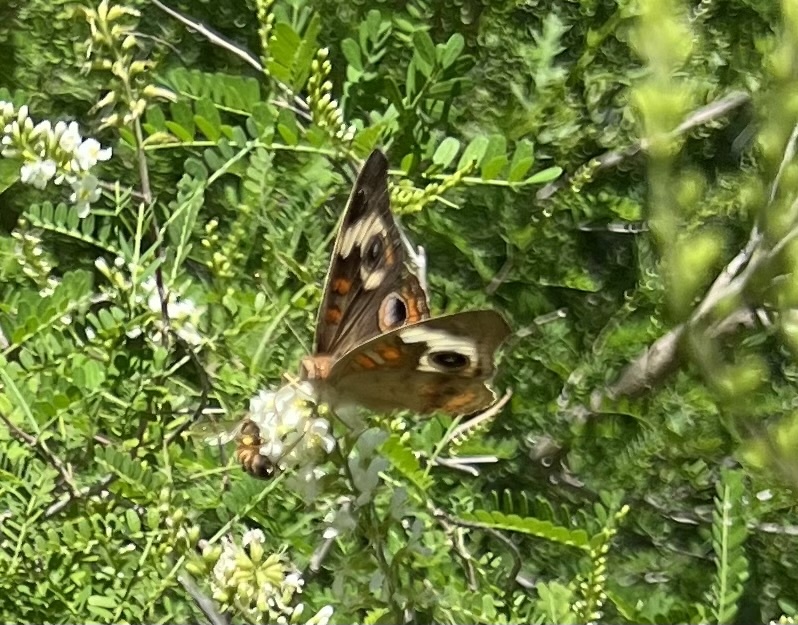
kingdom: Animalia
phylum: Arthropoda
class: Insecta
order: Lepidoptera
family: Nymphalidae
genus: Junonia
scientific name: Junonia coenia
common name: Common buckeye
